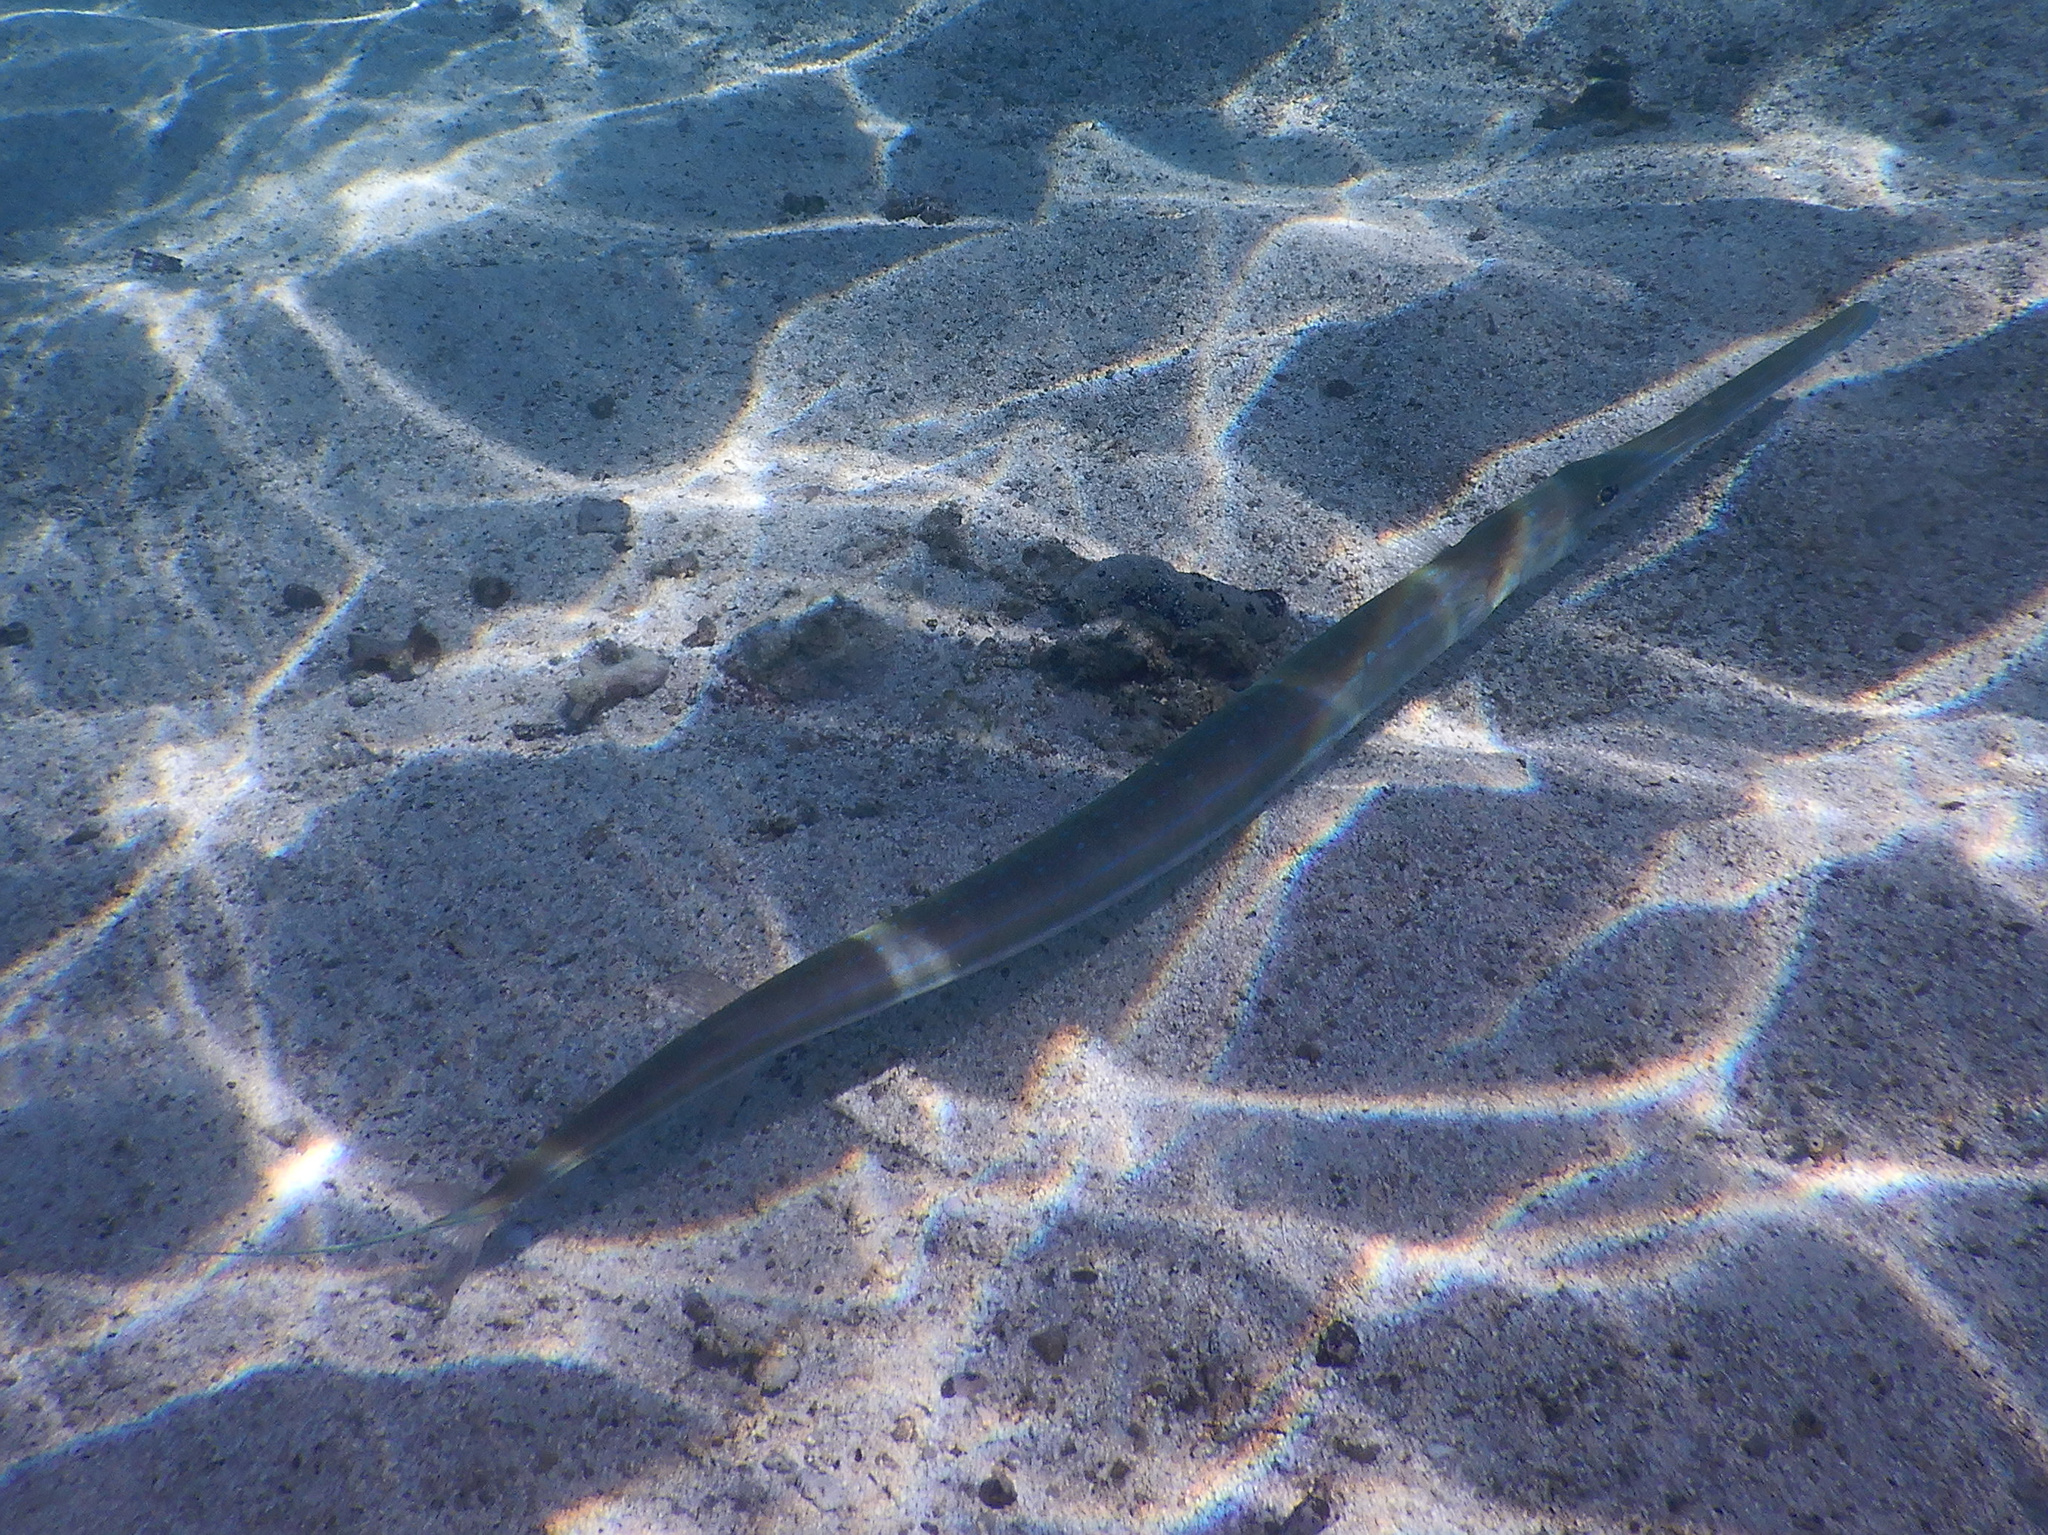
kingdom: Animalia
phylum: Chordata
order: Syngnathiformes
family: Fistulariidae
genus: Fistularia
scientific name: Fistularia commersonii
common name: Bluespotted cornetfish
